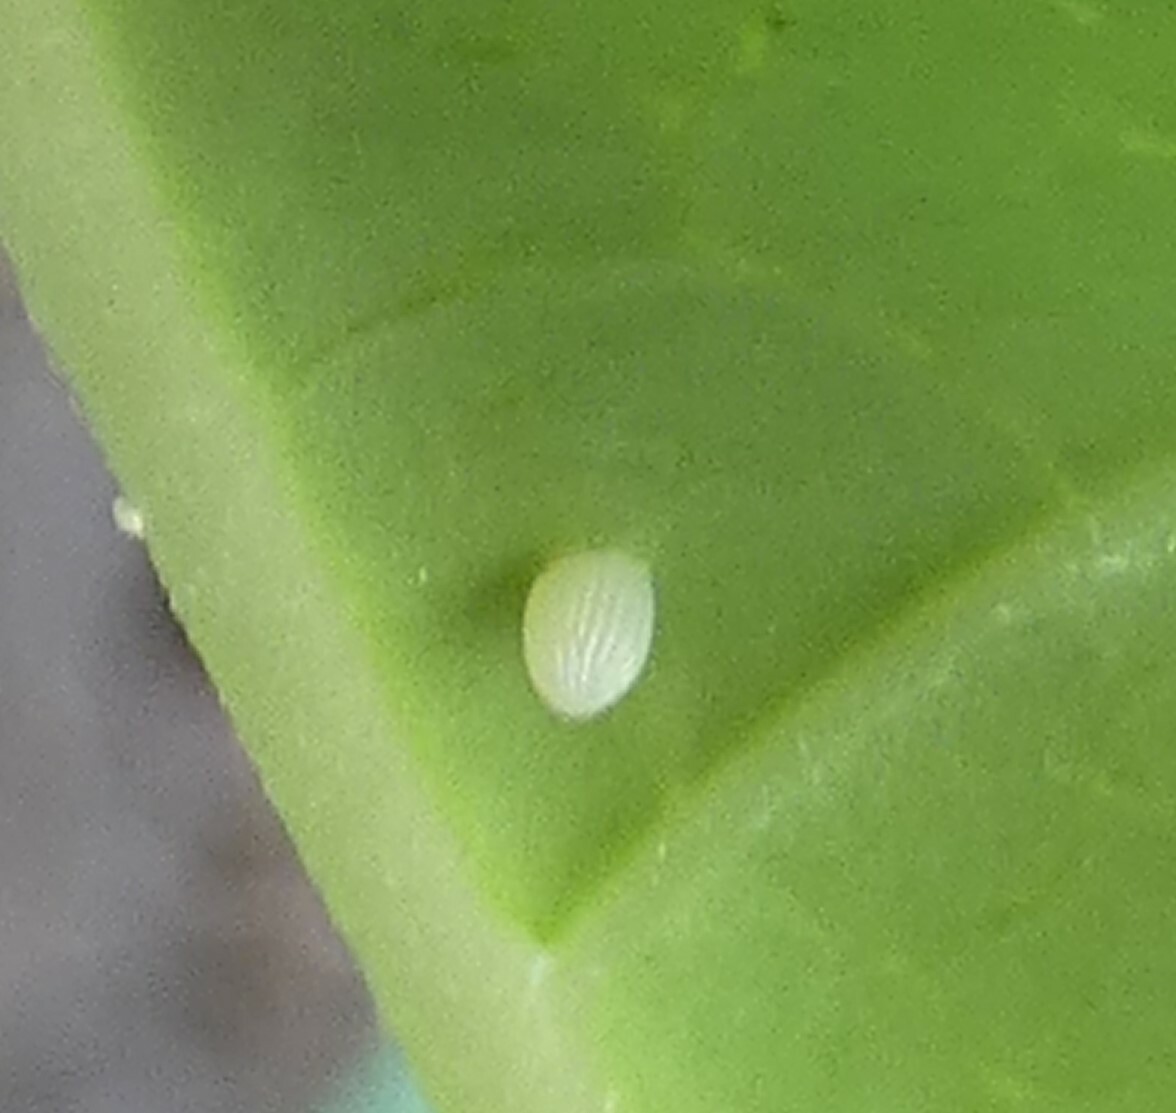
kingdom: Animalia
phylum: Arthropoda
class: Insecta
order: Lepidoptera
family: Nymphalidae
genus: Danaus
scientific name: Danaus plexippus
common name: Monarch
